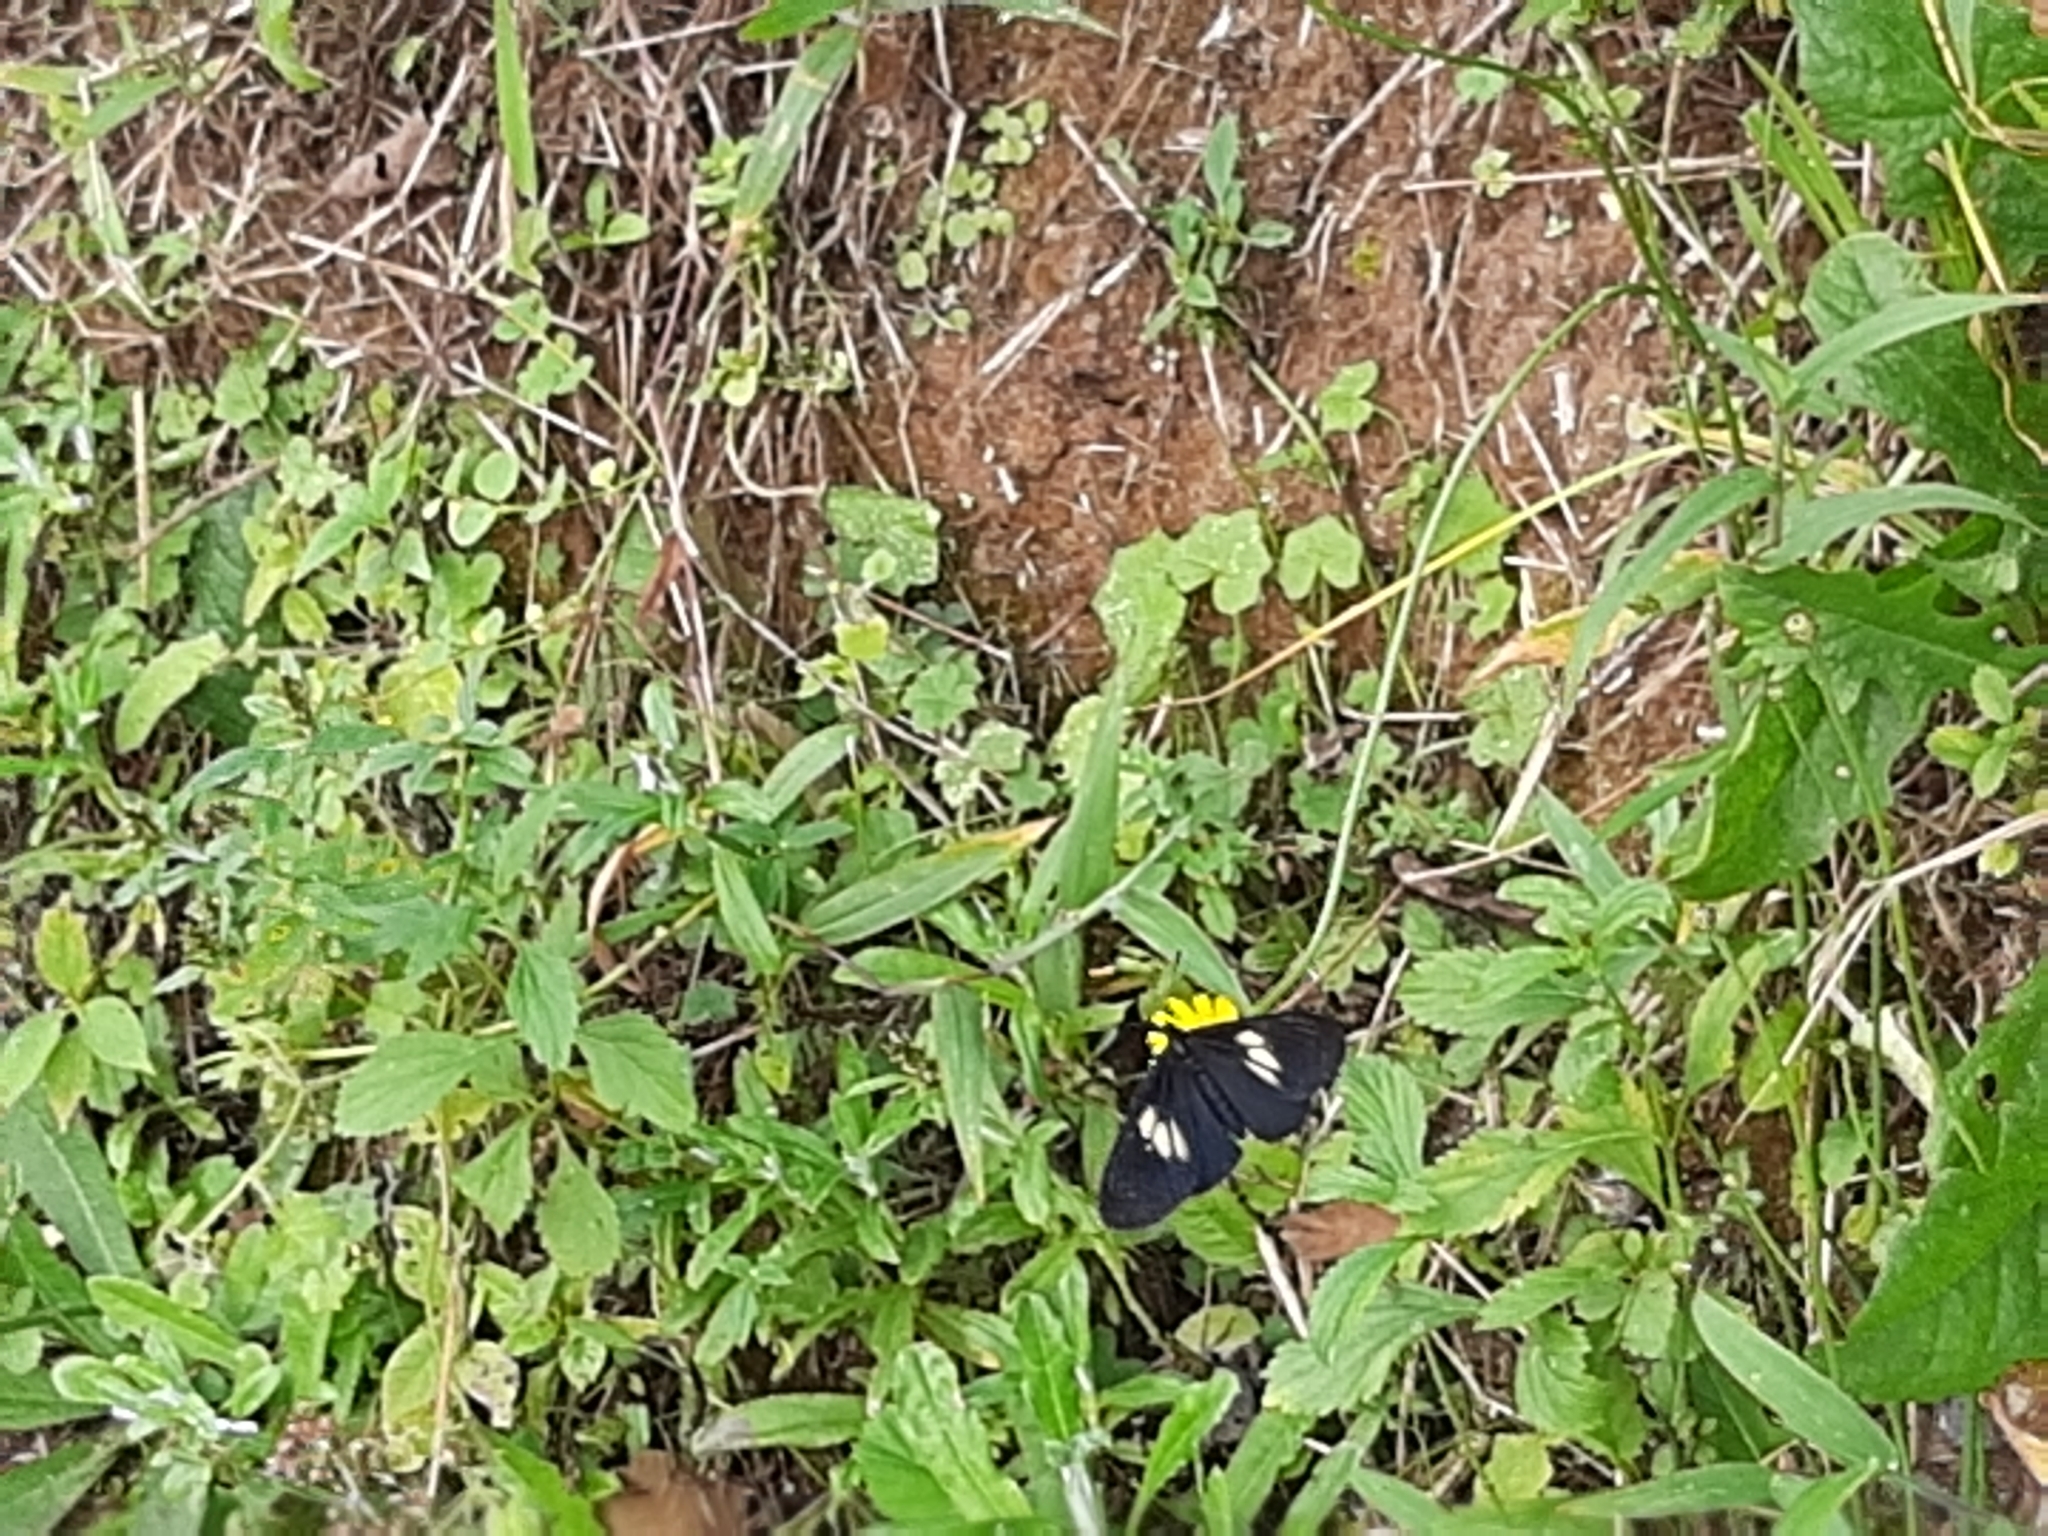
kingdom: Animalia
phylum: Arthropoda
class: Insecta
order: Lepidoptera
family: Nymphalidae
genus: Acraea
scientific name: Acraea Altinote ozomene
